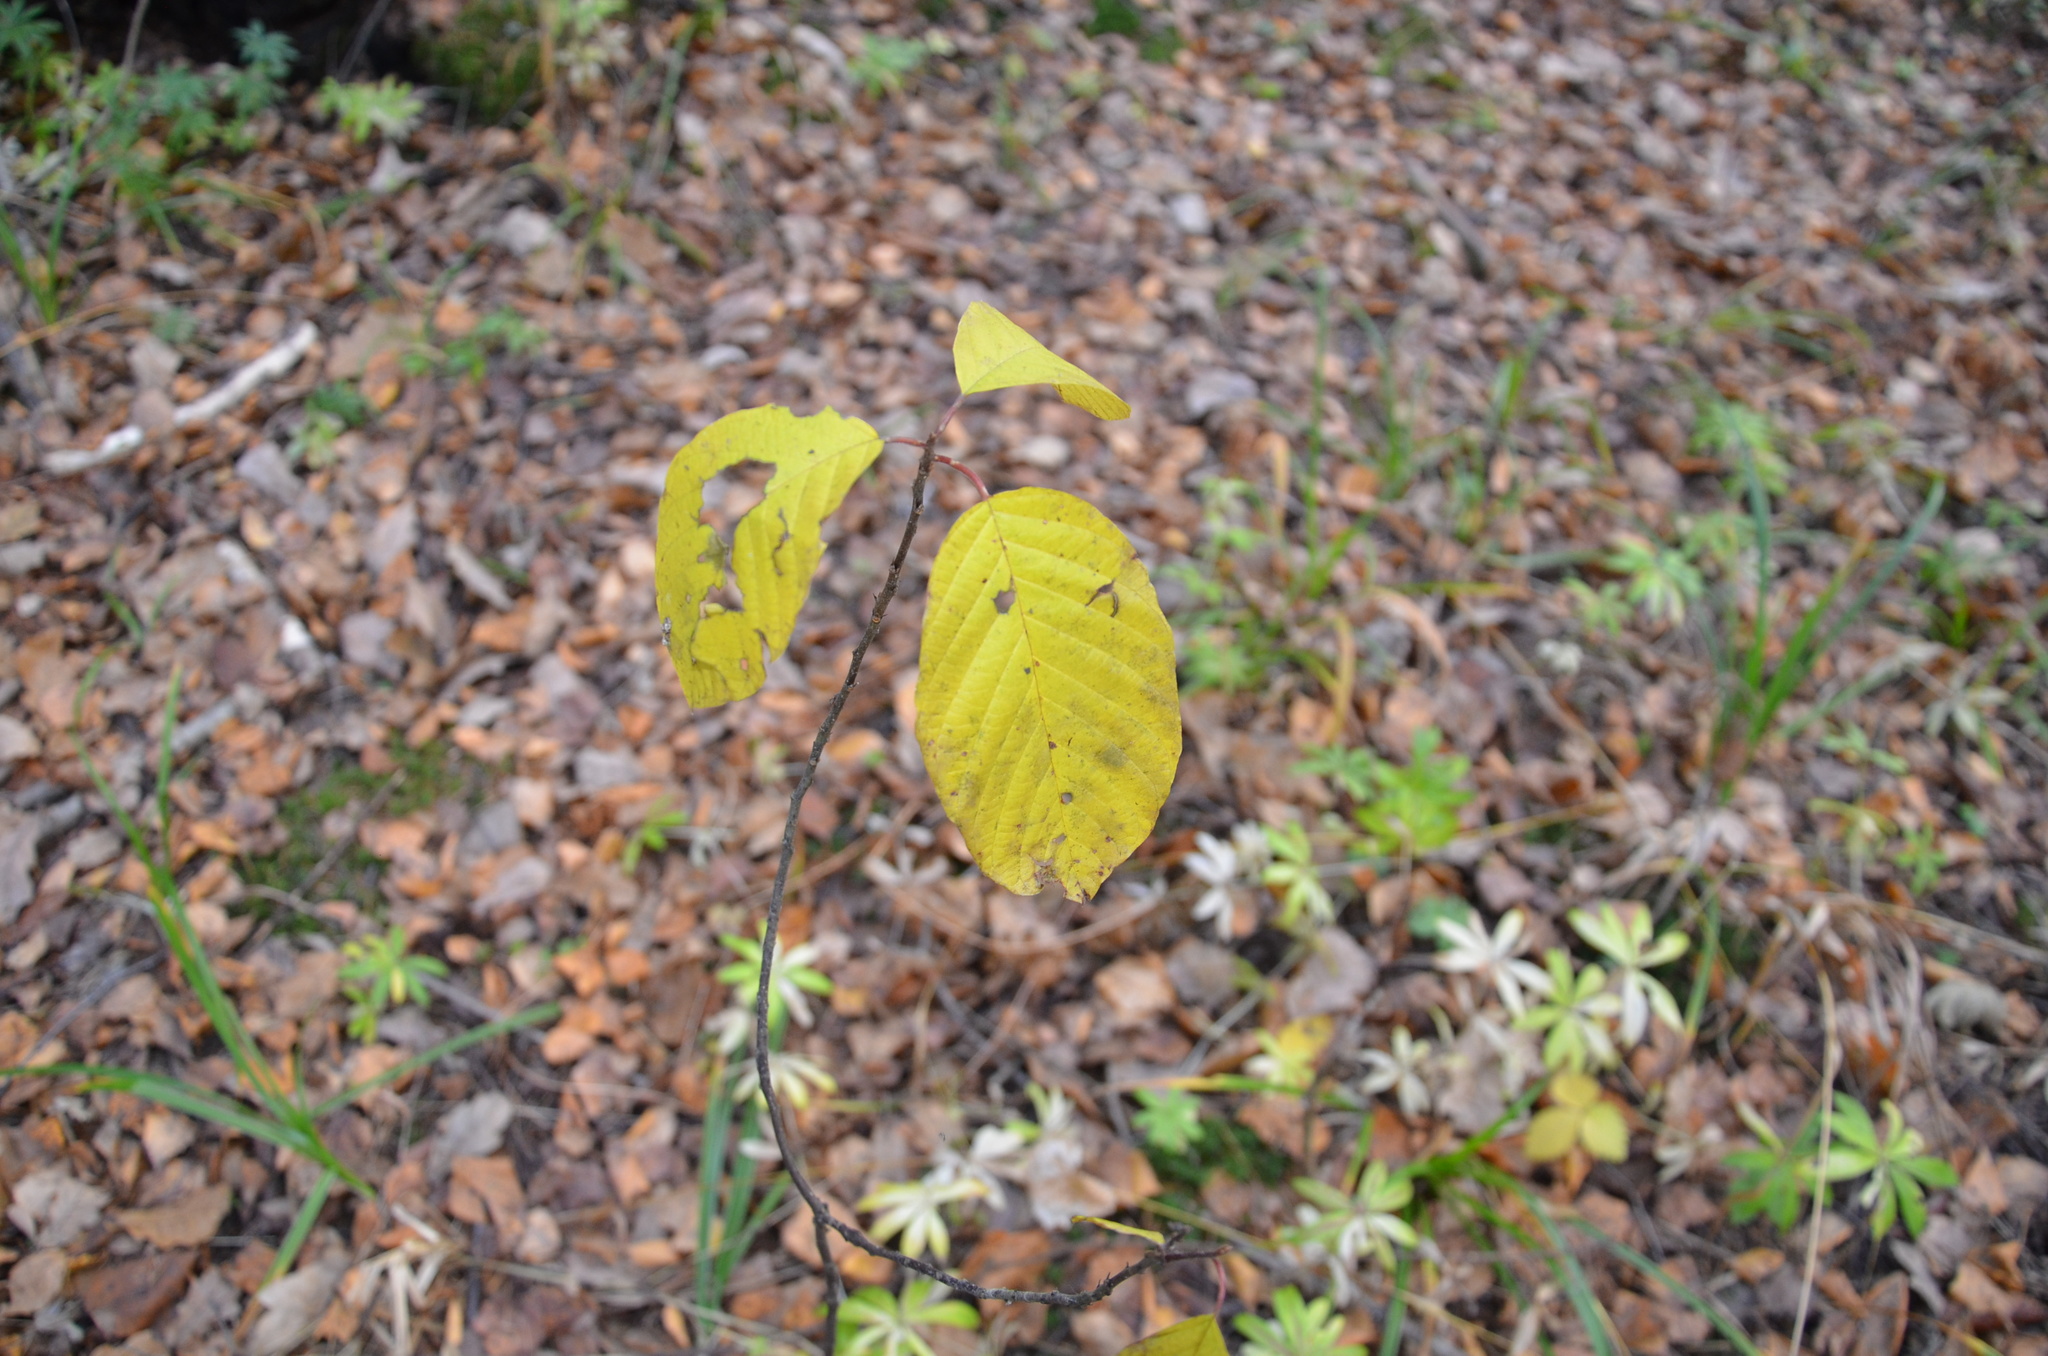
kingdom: Plantae
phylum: Tracheophyta
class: Magnoliopsida
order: Rosales
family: Rhamnaceae
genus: Frangula
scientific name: Frangula alnus
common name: Alder buckthorn
